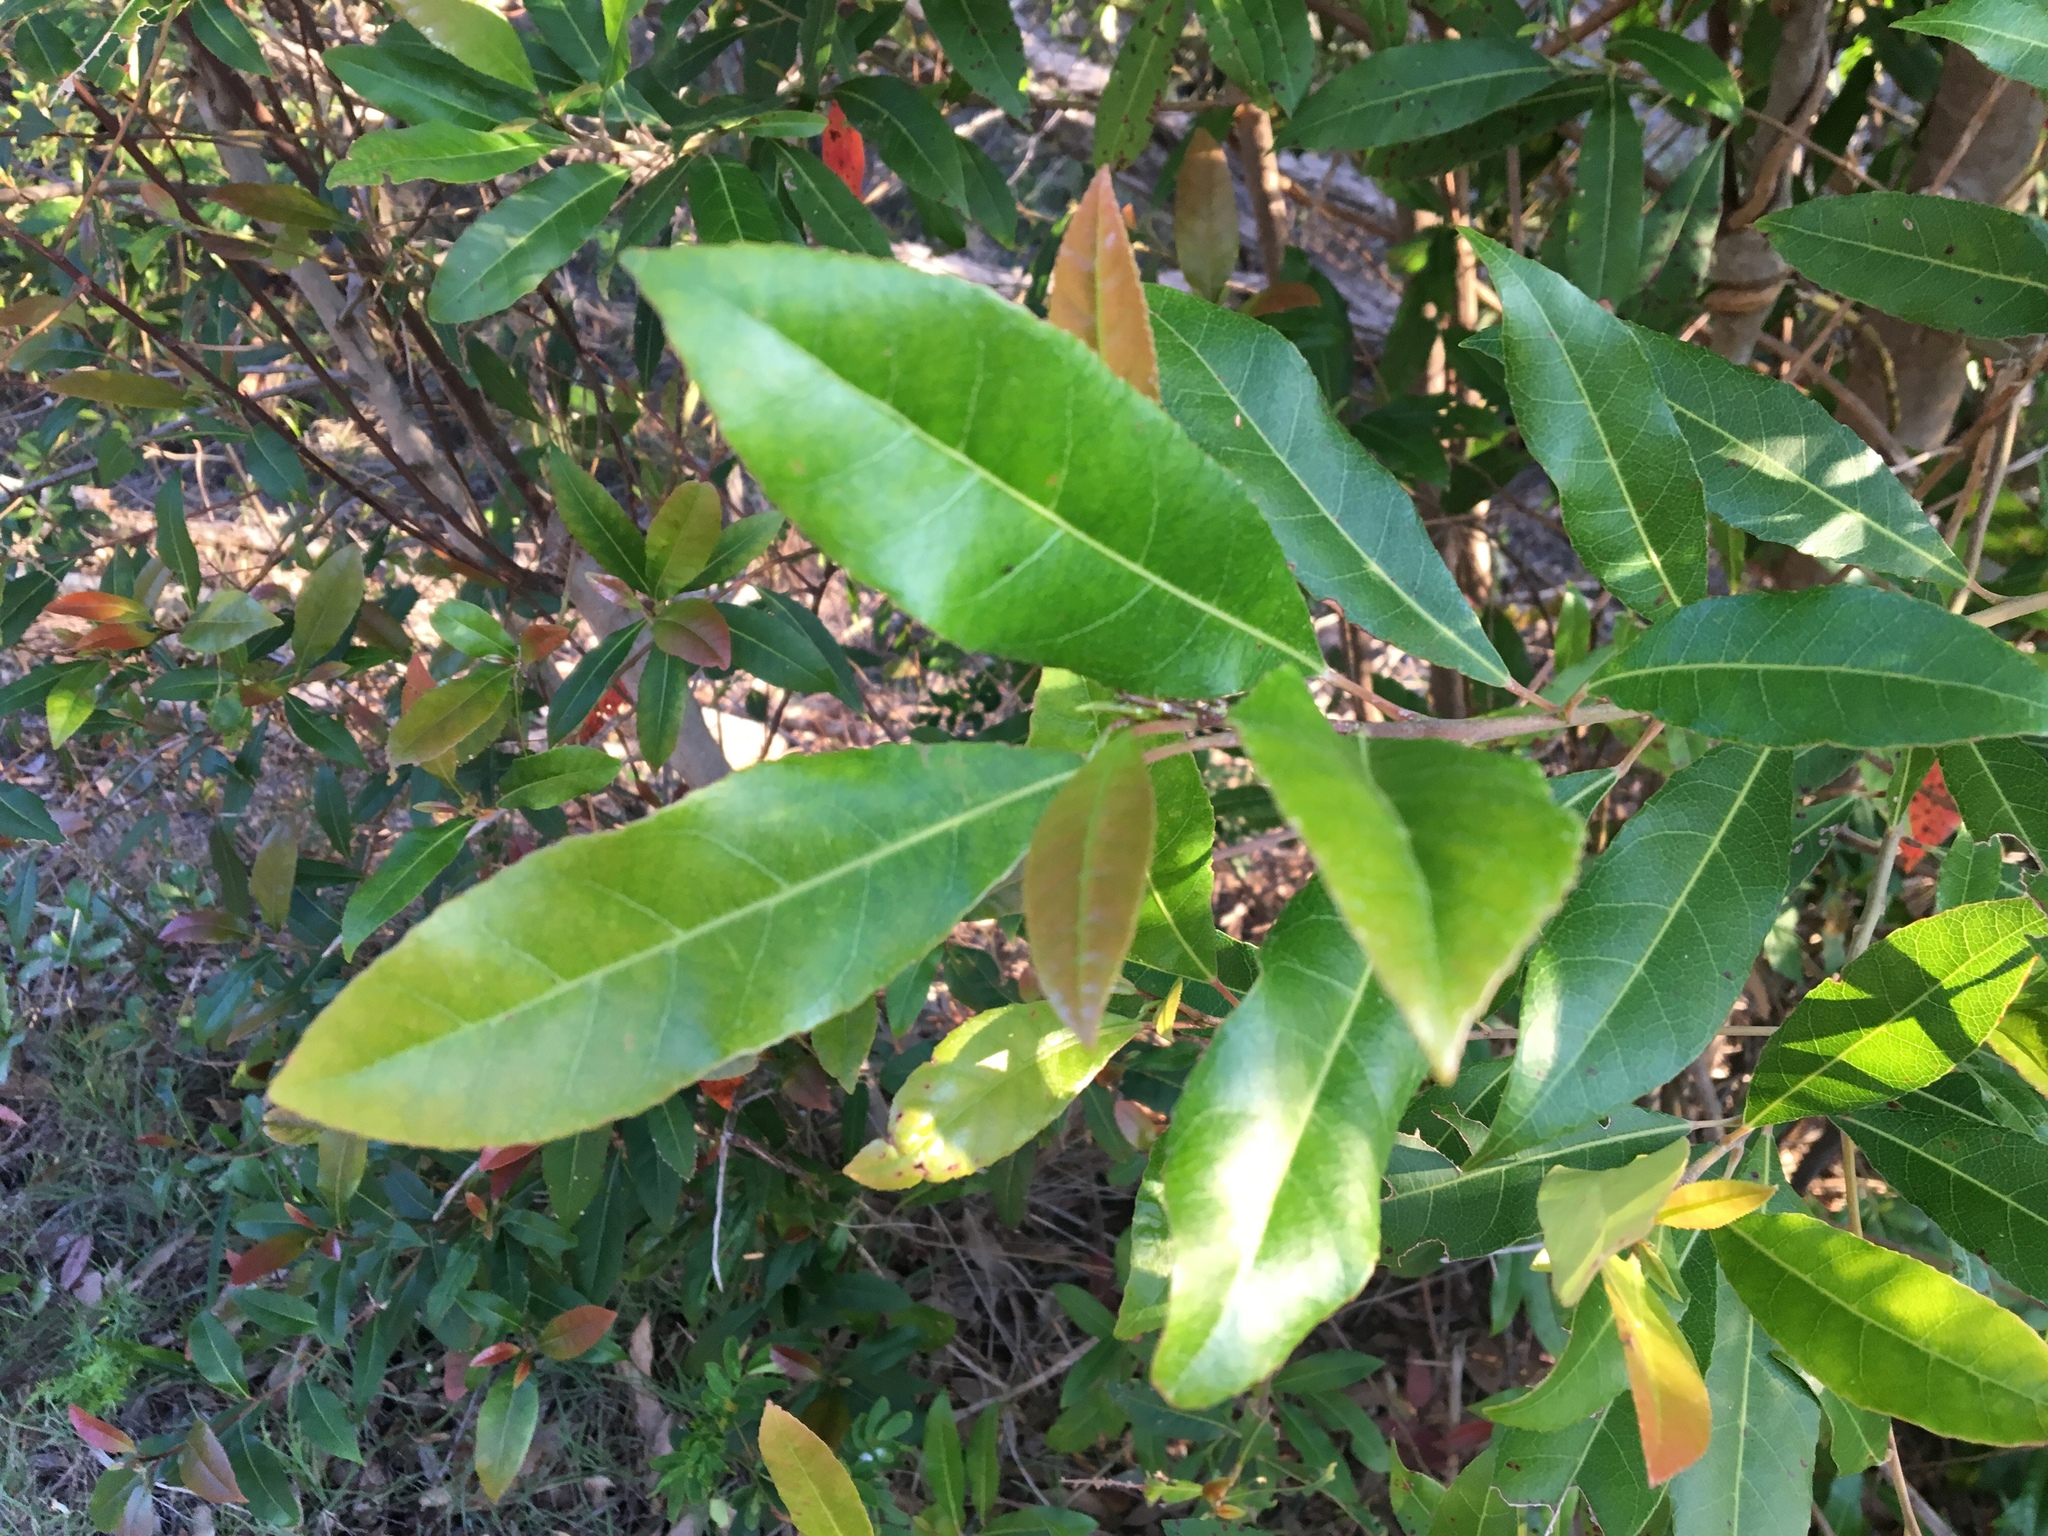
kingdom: Plantae
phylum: Tracheophyta
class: Magnoliopsida
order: Oxalidales
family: Elaeocarpaceae
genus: Elaeocarpus
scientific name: Elaeocarpus reticulatus
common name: Ash quandong
